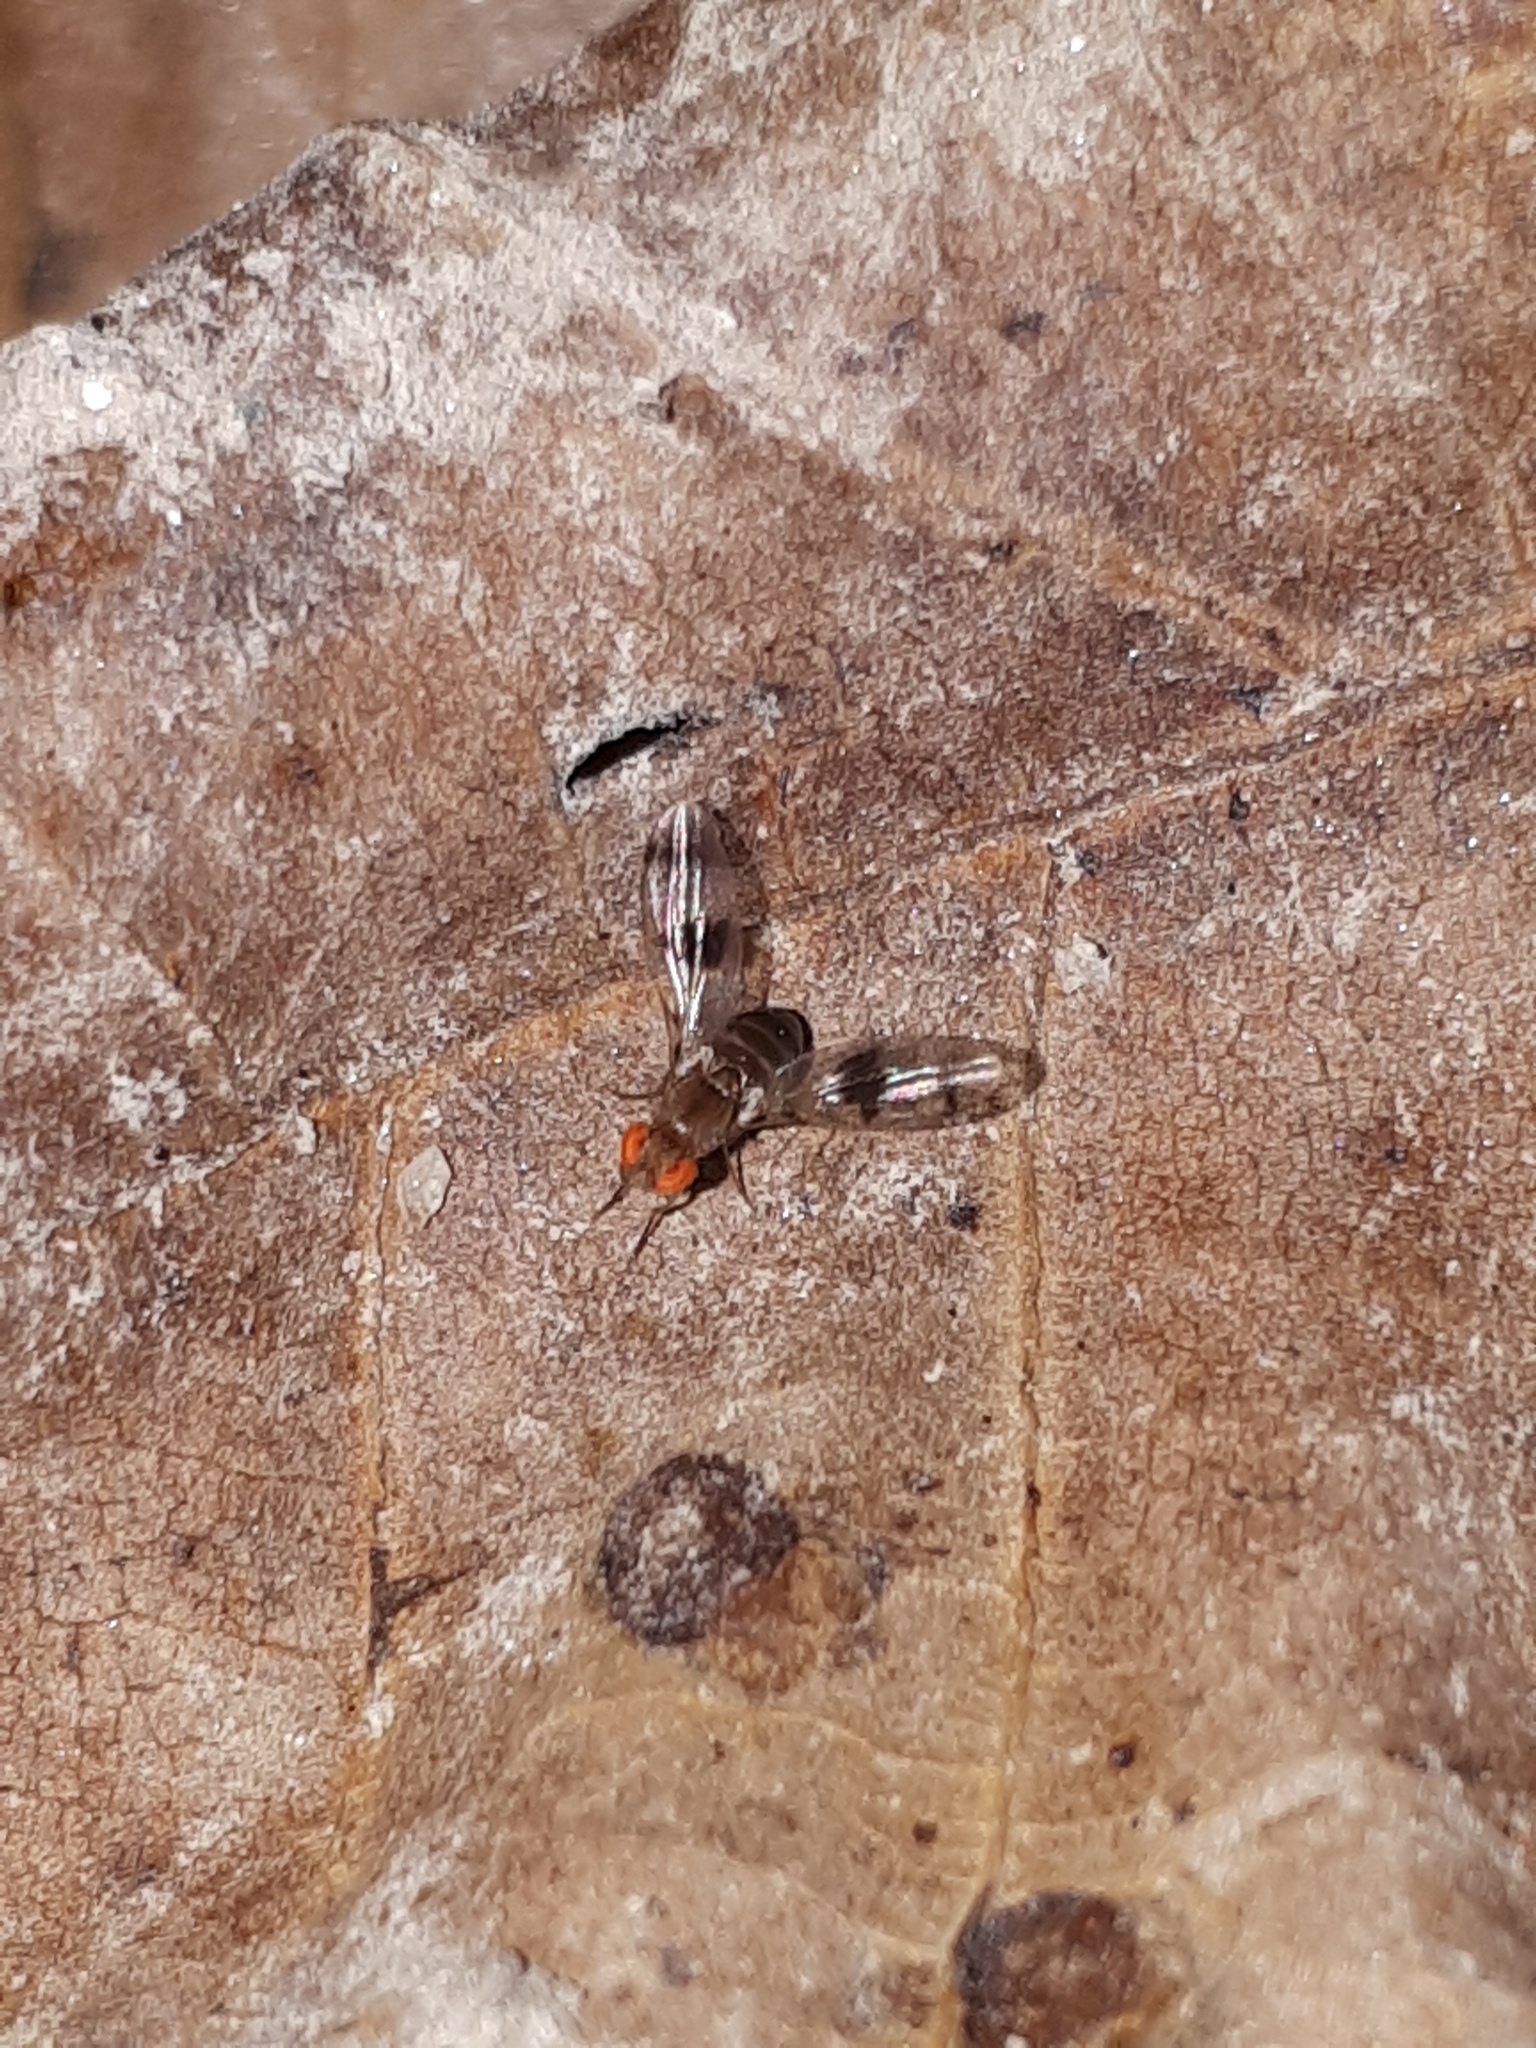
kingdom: Animalia
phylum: Arthropoda
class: Insecta
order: Diptera
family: Drosophilidae
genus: Chymomyza
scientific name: Chymomyza amoena
